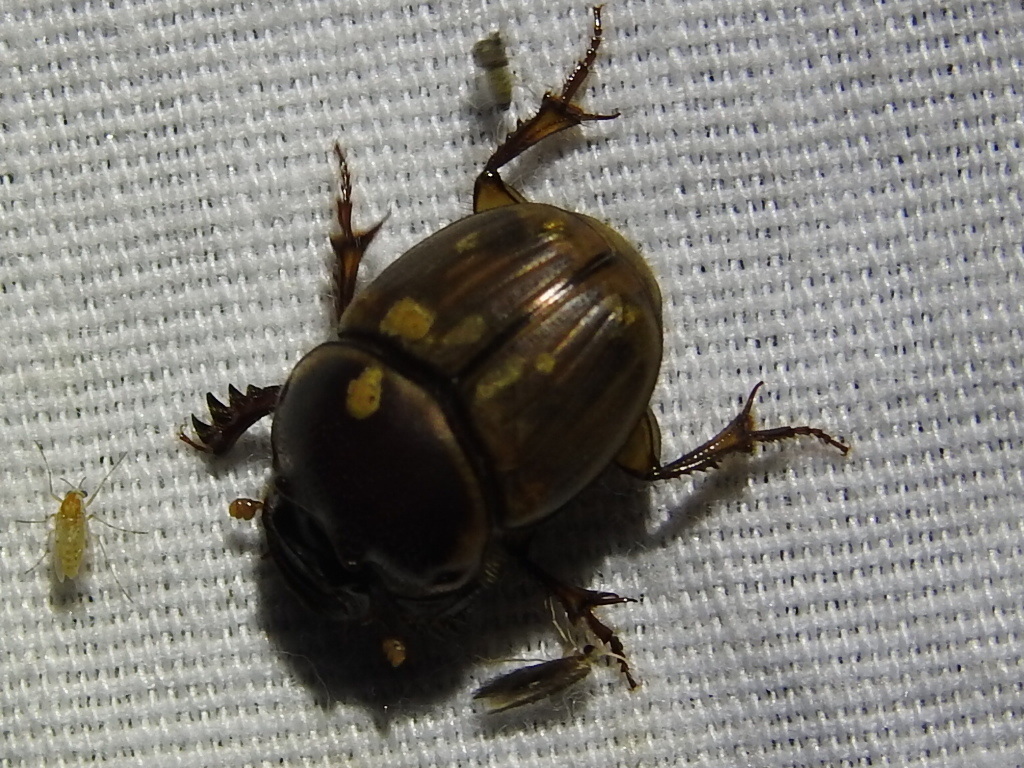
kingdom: Animalia
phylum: Arthropoda
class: Insecta
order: Coleoptera
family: Scarabaeidae
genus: Digitonthophagus
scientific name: Digitonthophagus gazella
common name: Brown dung beetle
